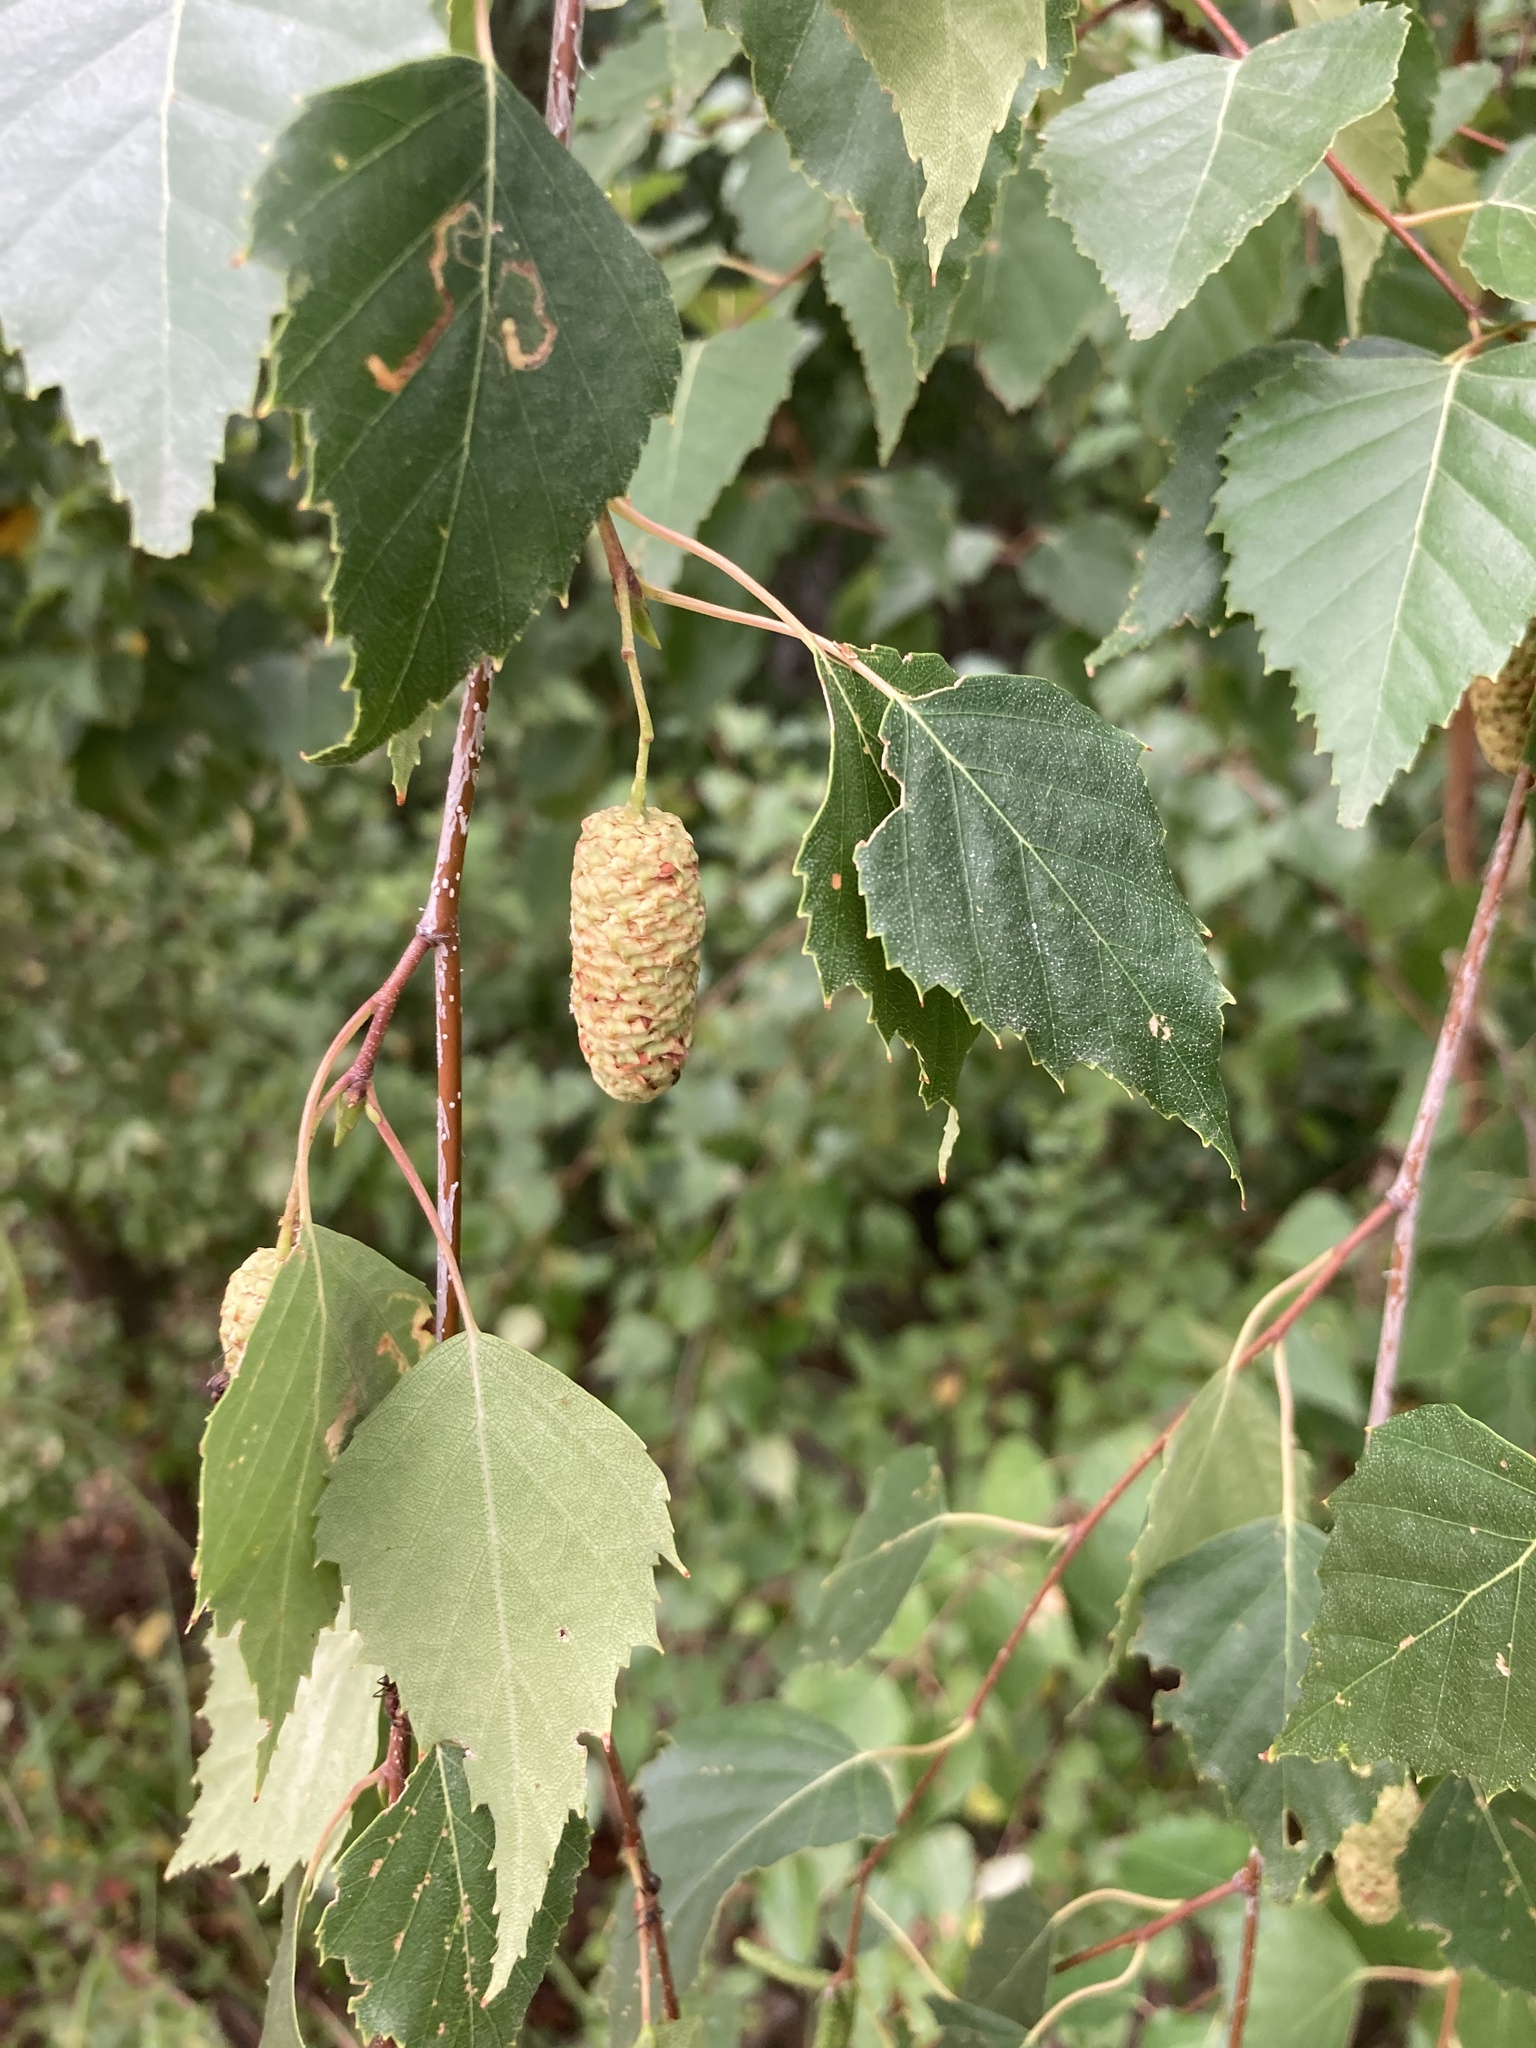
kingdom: Plantae
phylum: Tracheophyta
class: Magnoliopsida
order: Fagales
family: Betulaceae
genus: Betula
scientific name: Betula pendula
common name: Silver birch
